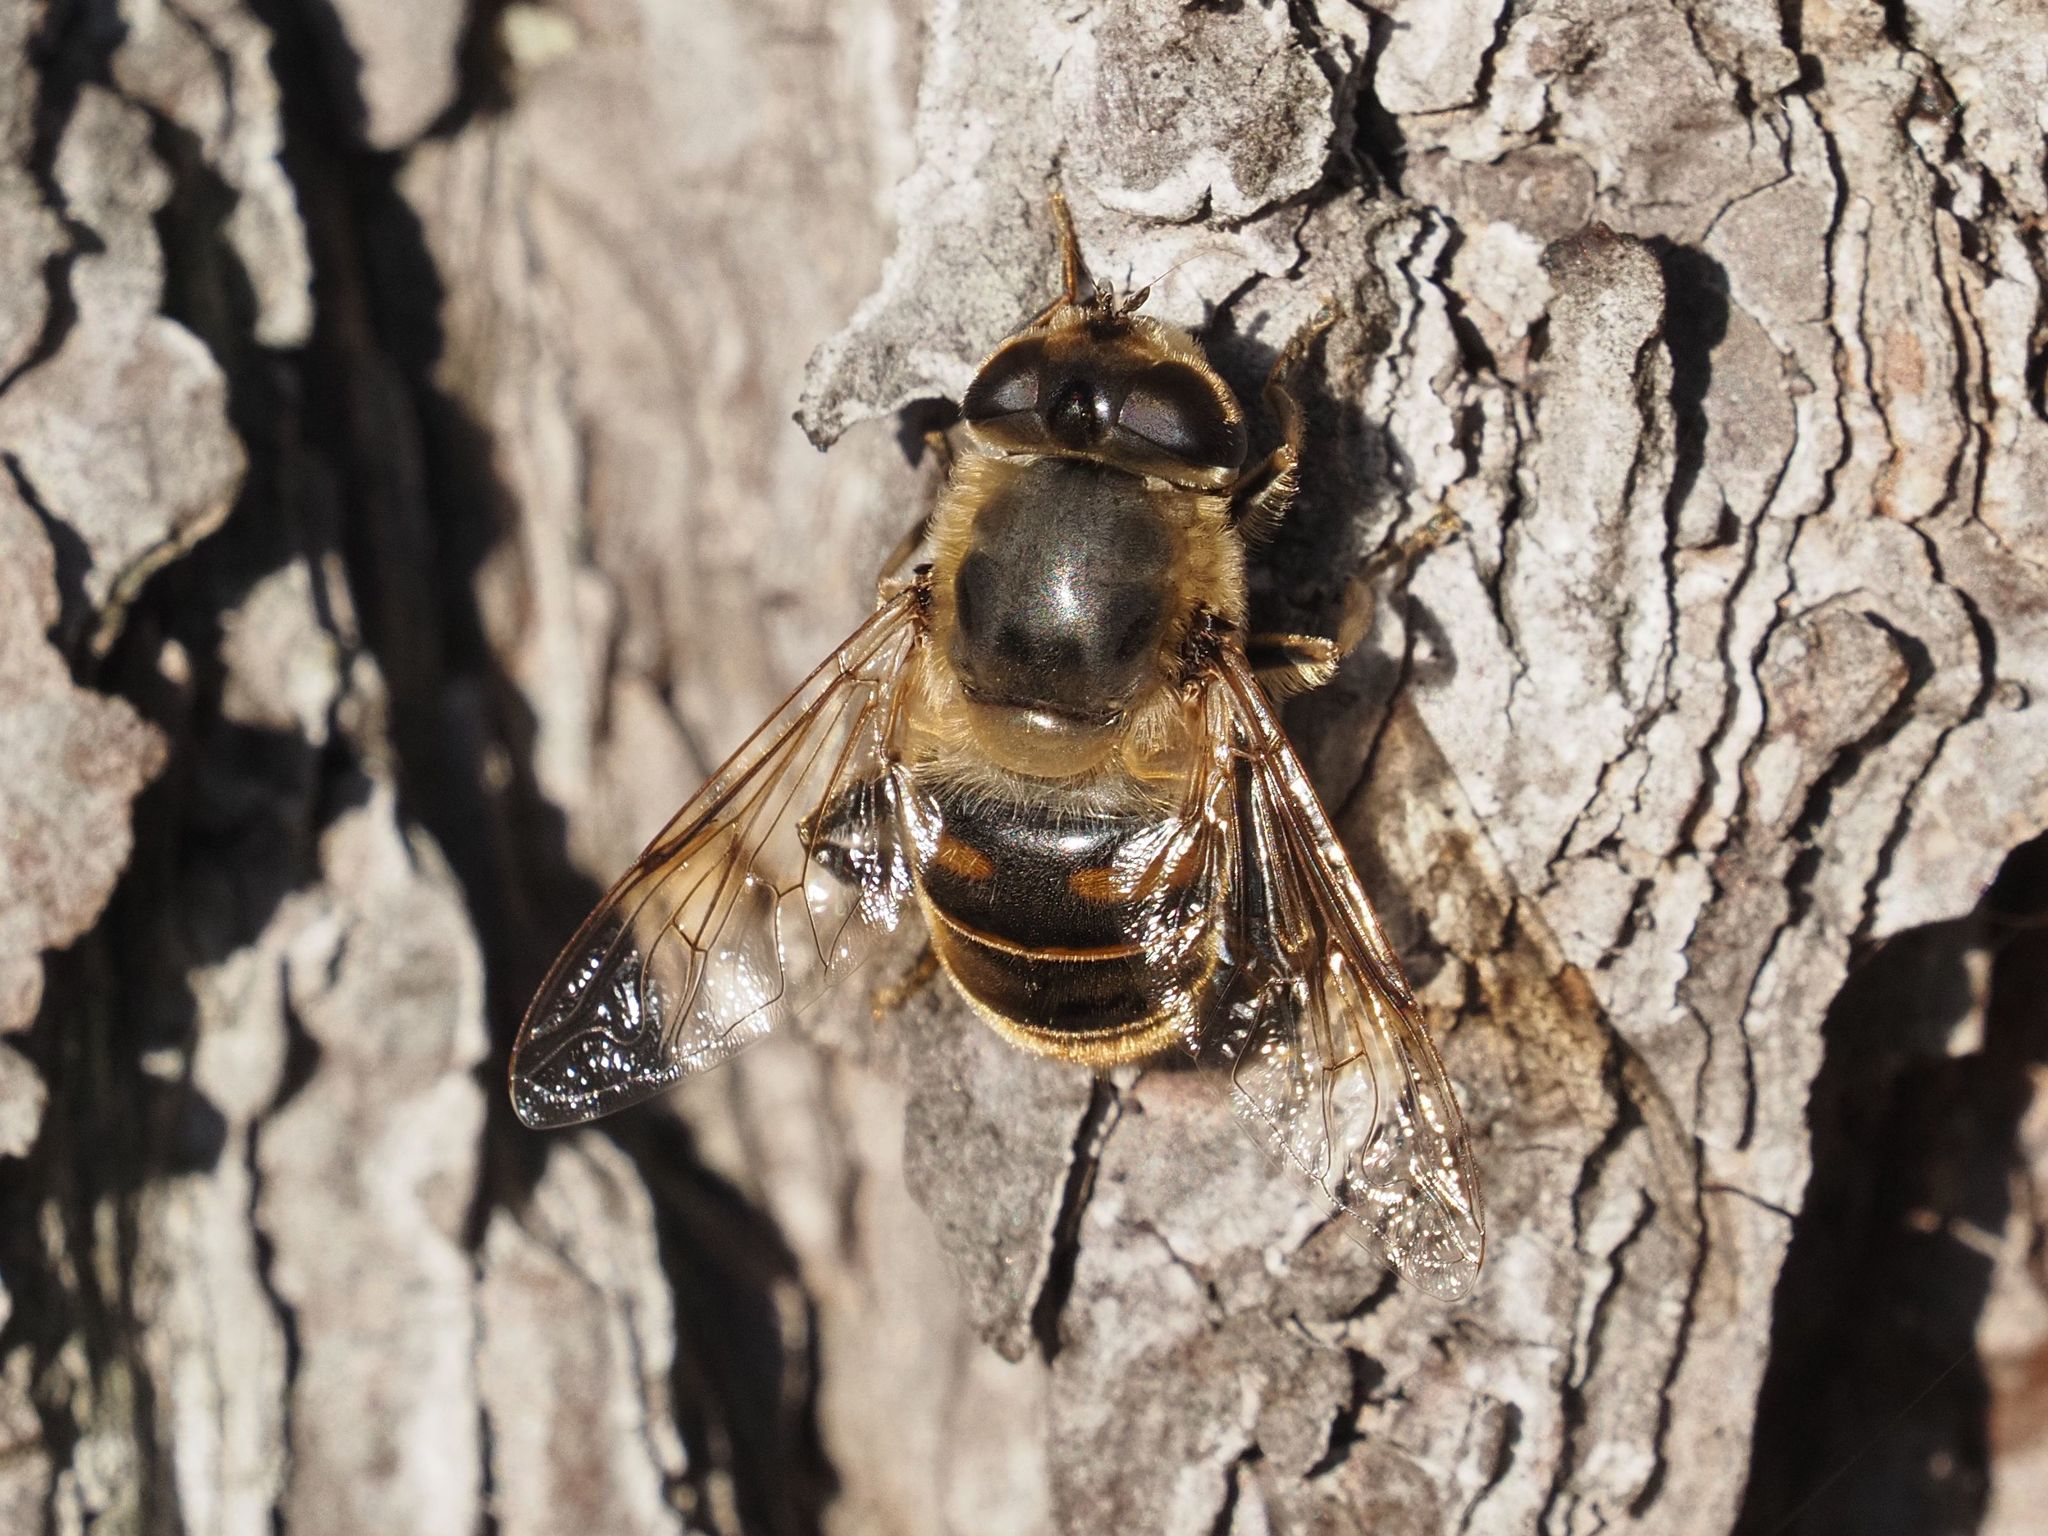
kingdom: Animalia
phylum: Arthropoda
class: Insecta
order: Diptera
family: Syrphidae
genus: Eristalis
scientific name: Eristalis tenax
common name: Drone fly
